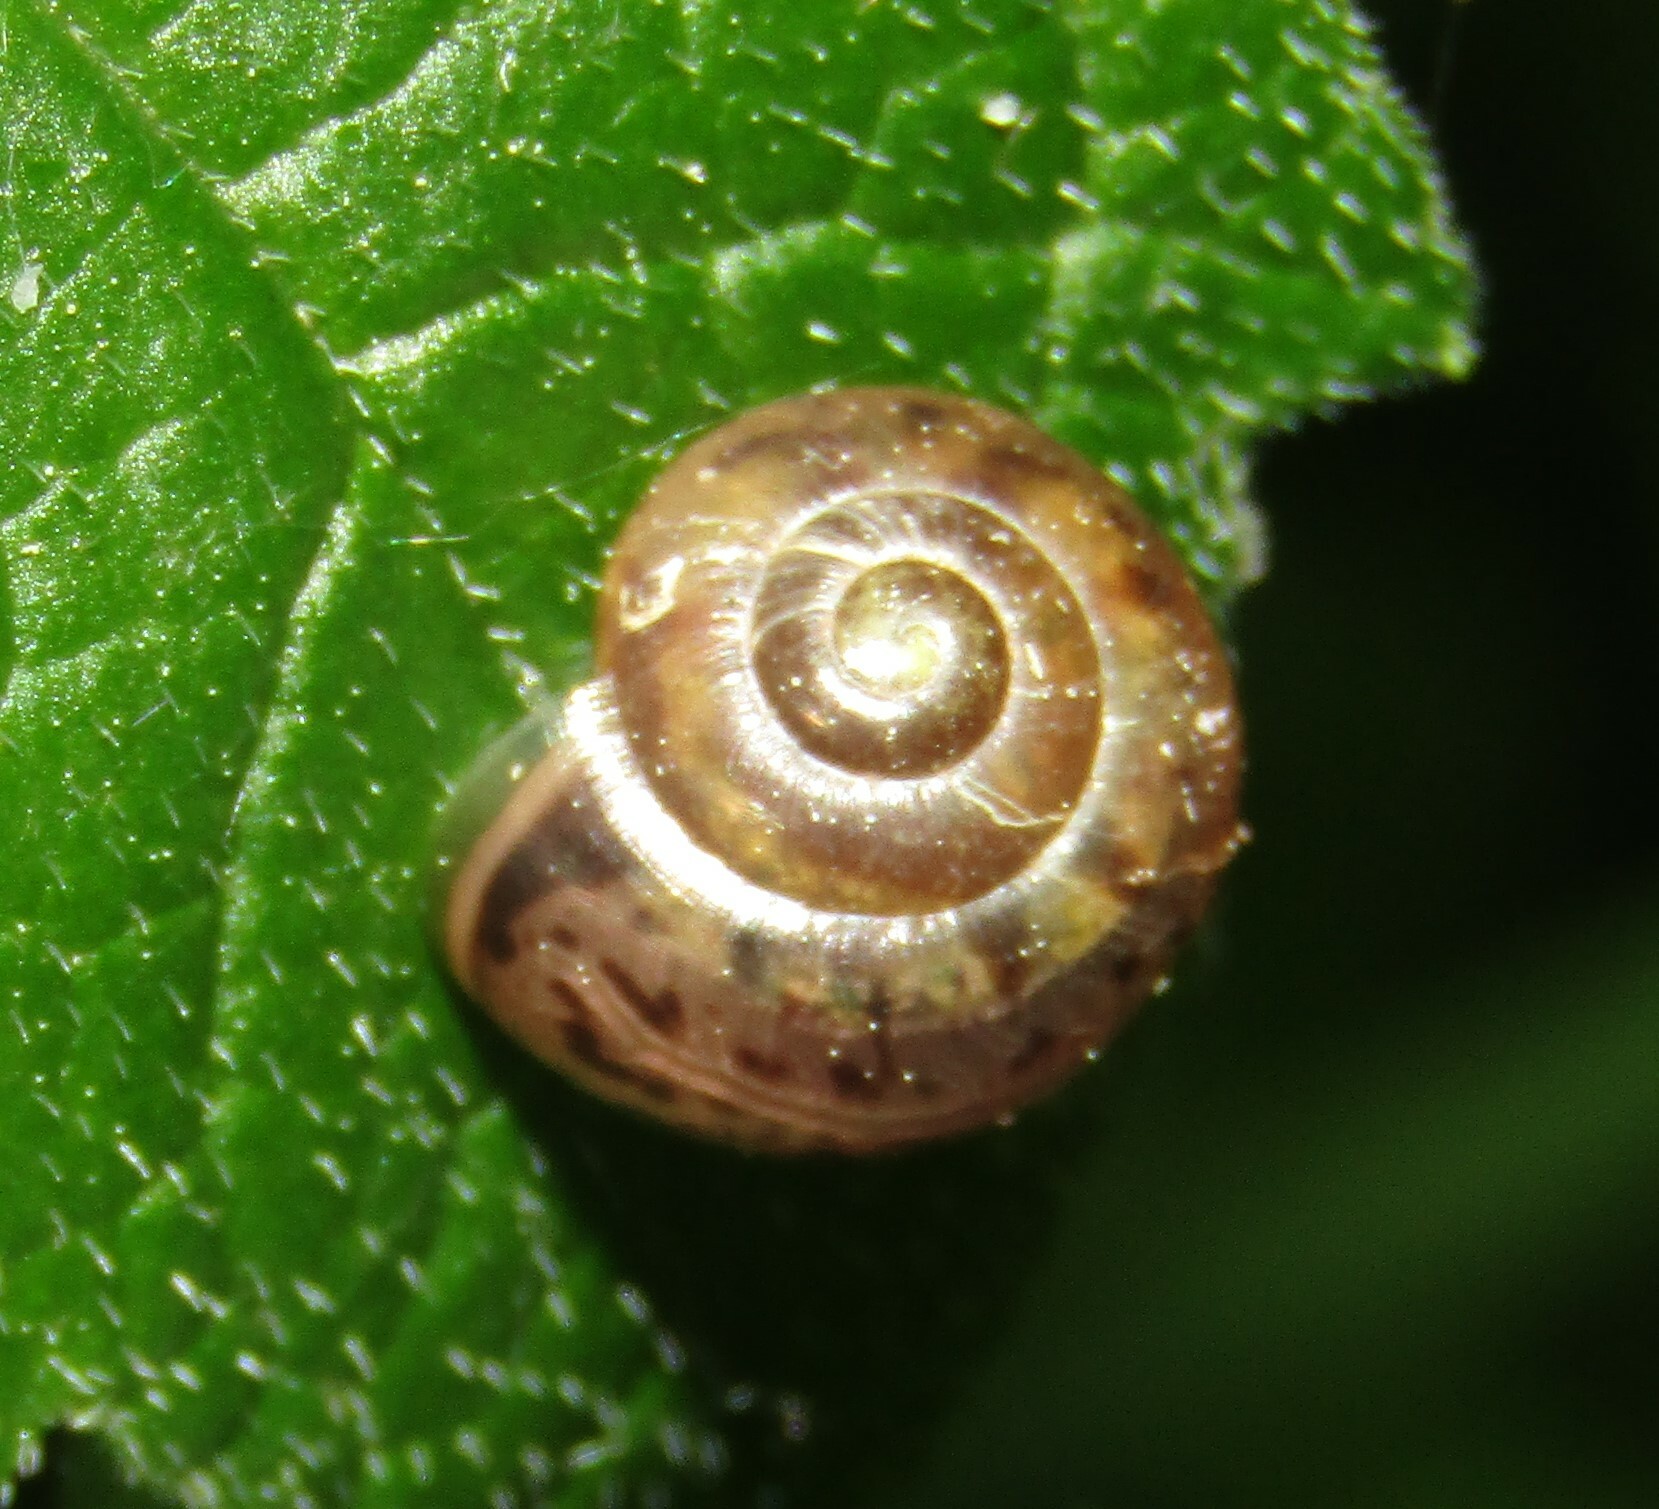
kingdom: Animalia
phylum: Mollusca
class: Gastropoda
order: Stylommatophora
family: Camaenidae
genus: Fruticicola
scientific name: Fruticicola fruticum
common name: Bush snail
